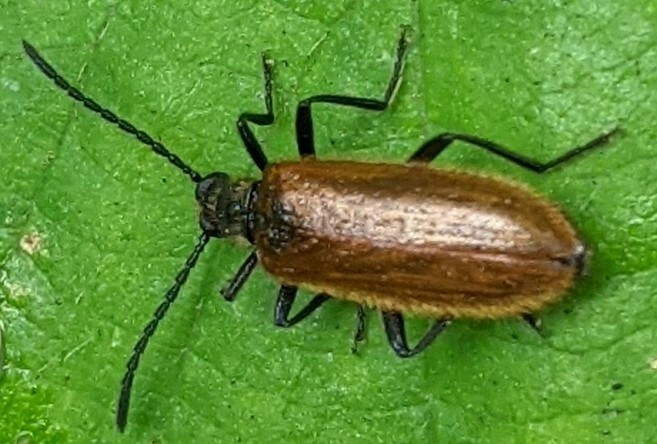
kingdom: Animalia
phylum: Arthropoda
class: Insecta
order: Coleoptera
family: Tenebrionidae
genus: Lagria
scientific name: Lagria hirta
